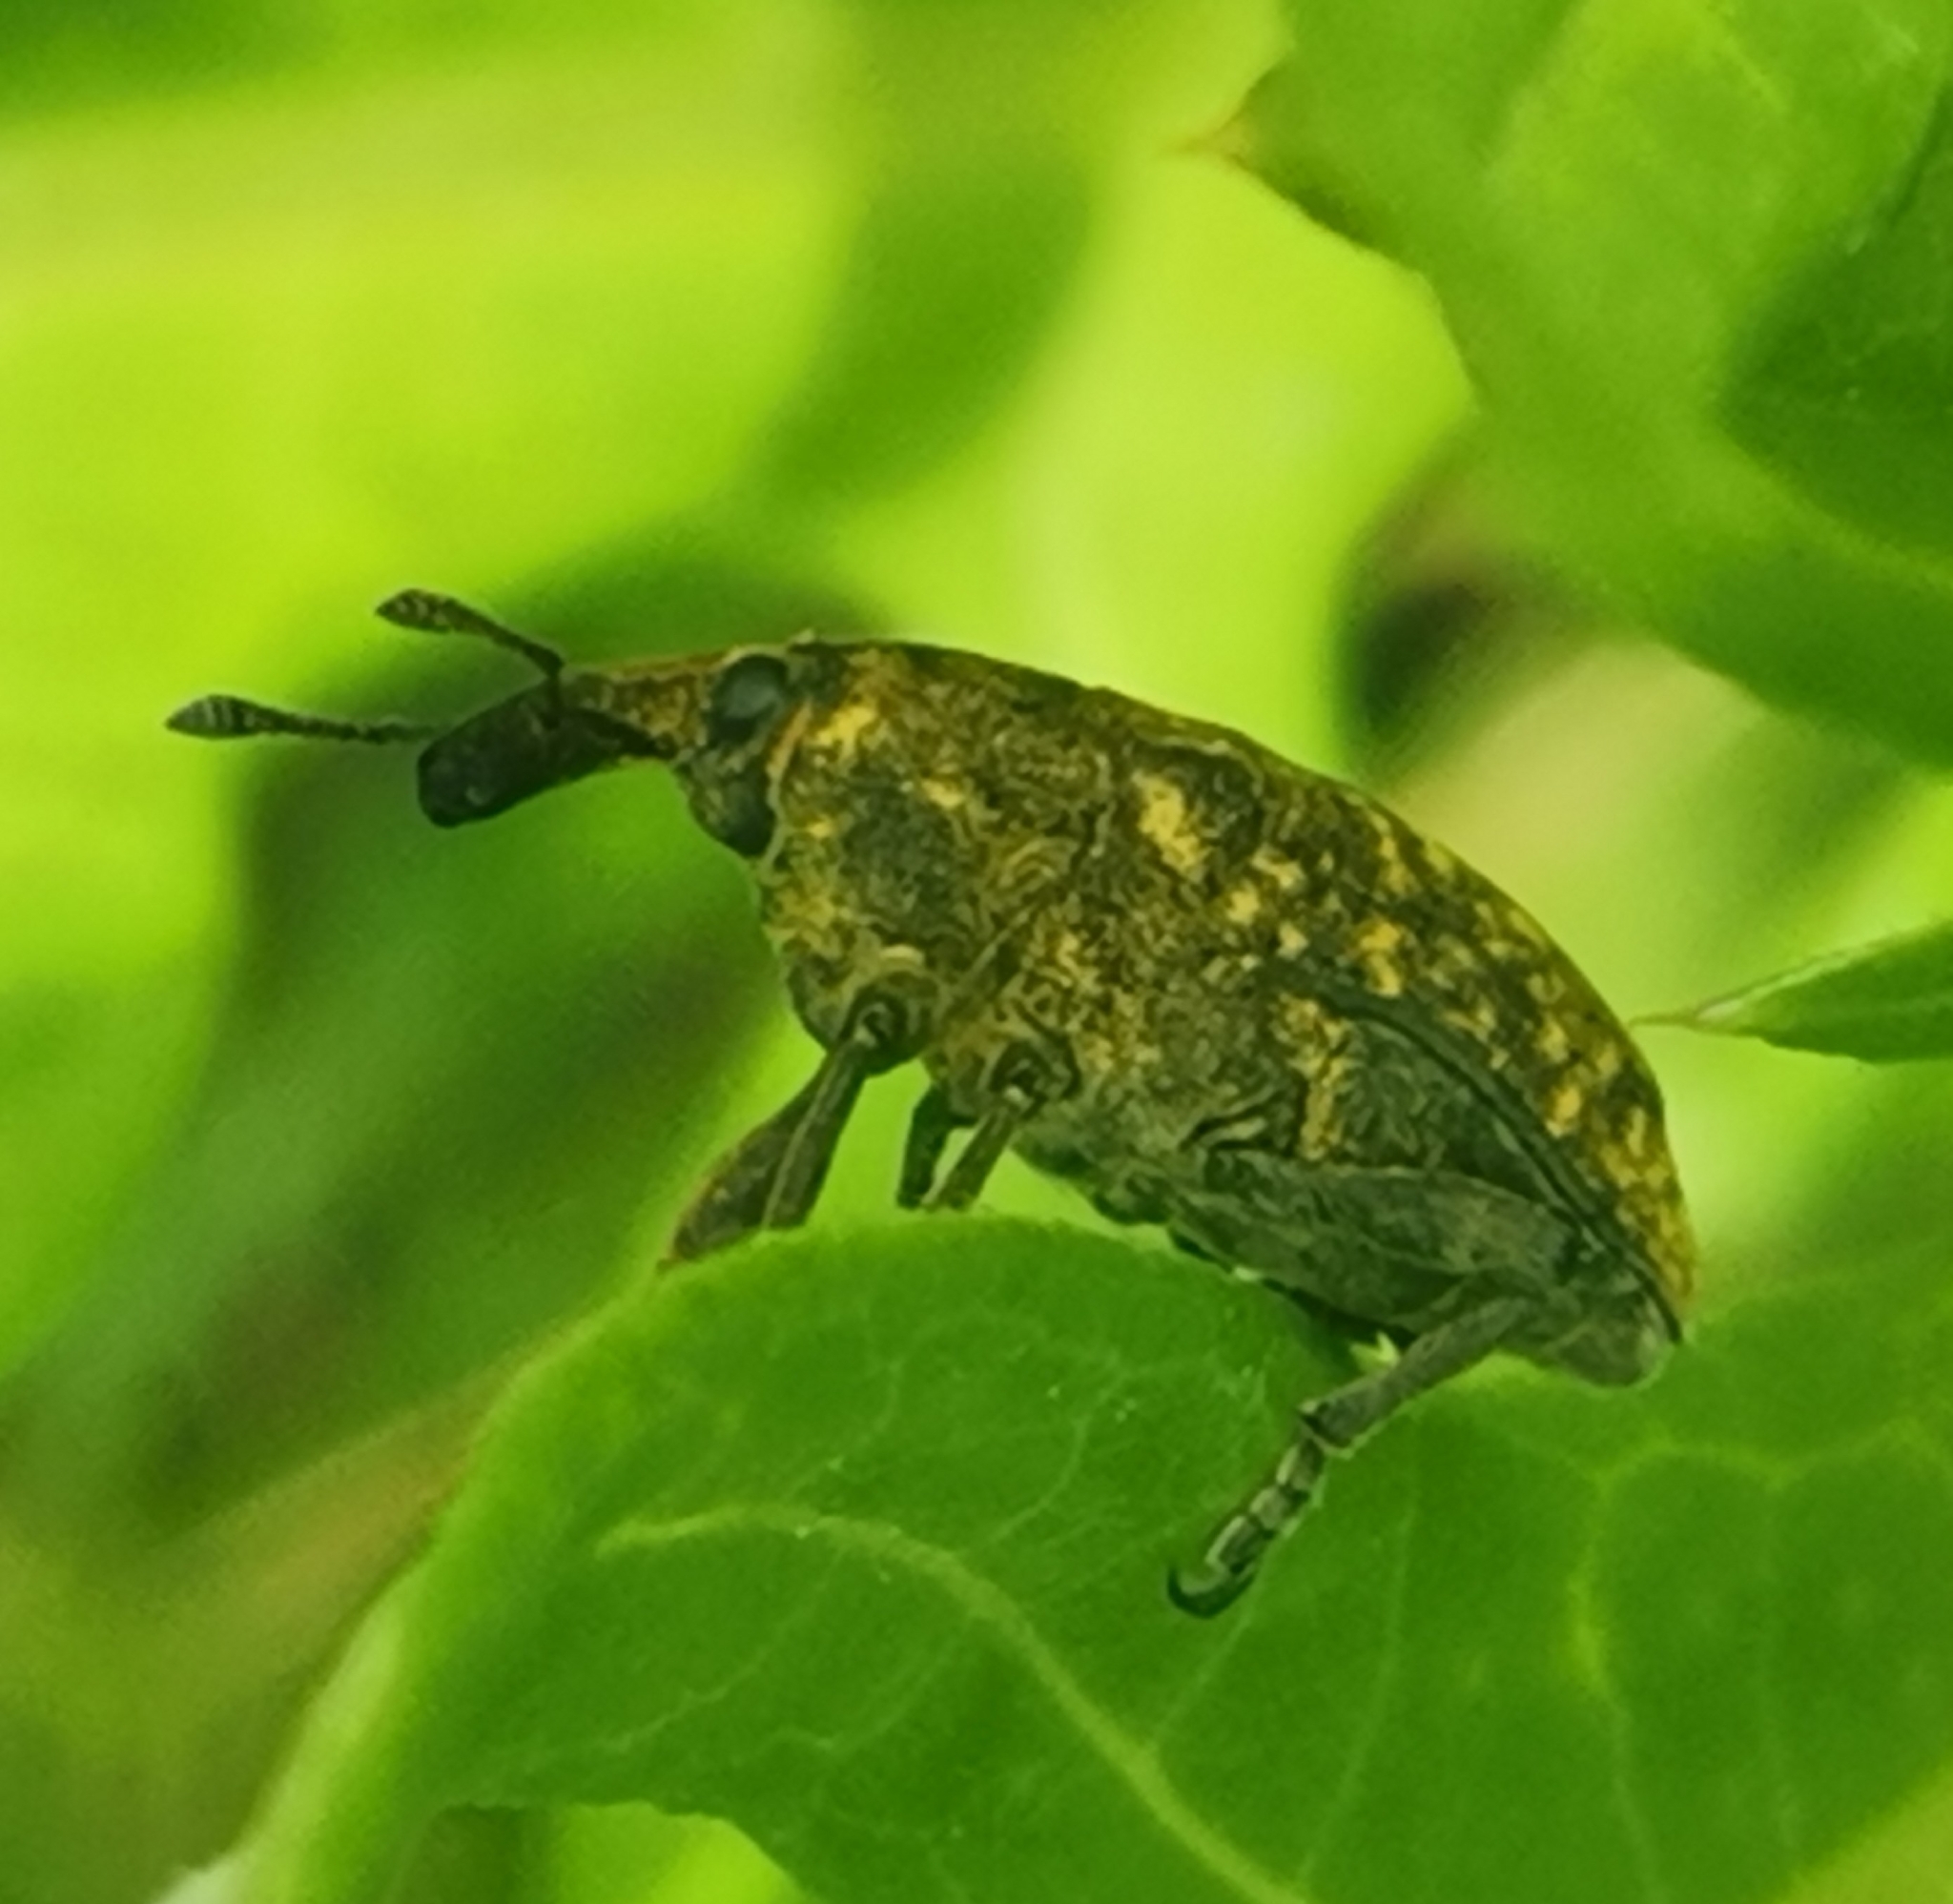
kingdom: Animalia
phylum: Arthropoda
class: Insecta
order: Coleoptera
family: Curculionidae
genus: Larinus
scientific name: Larinus sturnus
